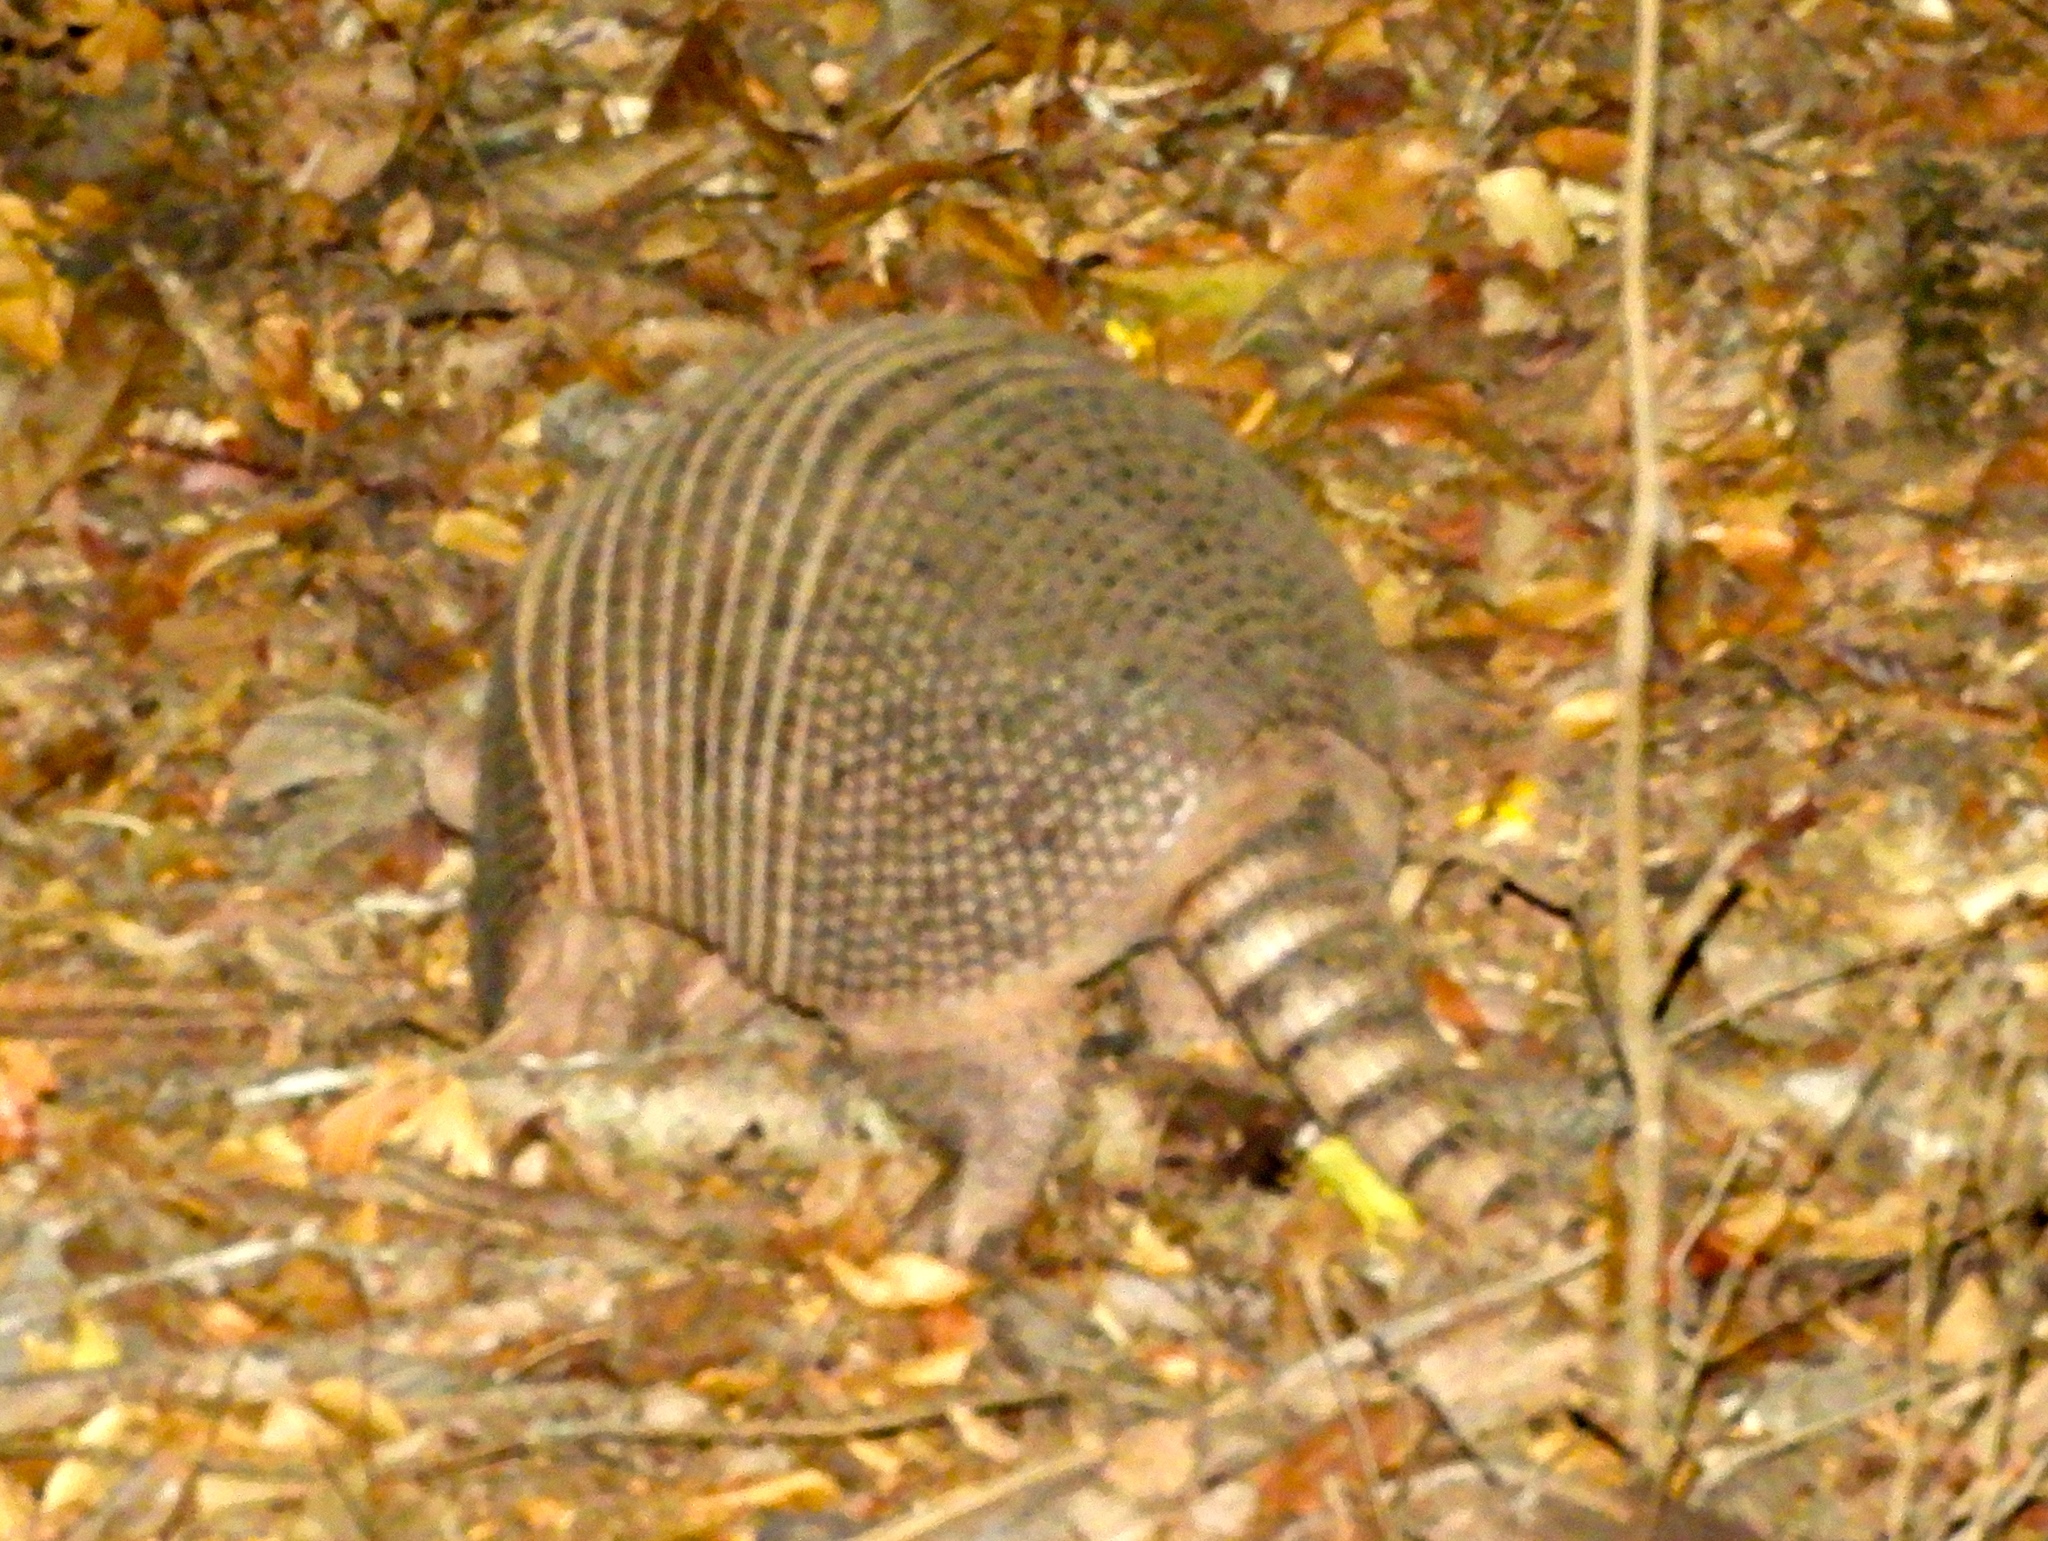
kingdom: Animalia
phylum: Chordata
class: Mammalia
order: Cingulata
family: Dasypodidae
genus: Dasypus
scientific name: Dasypus novemcinctus
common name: Nine-banded armadillo
